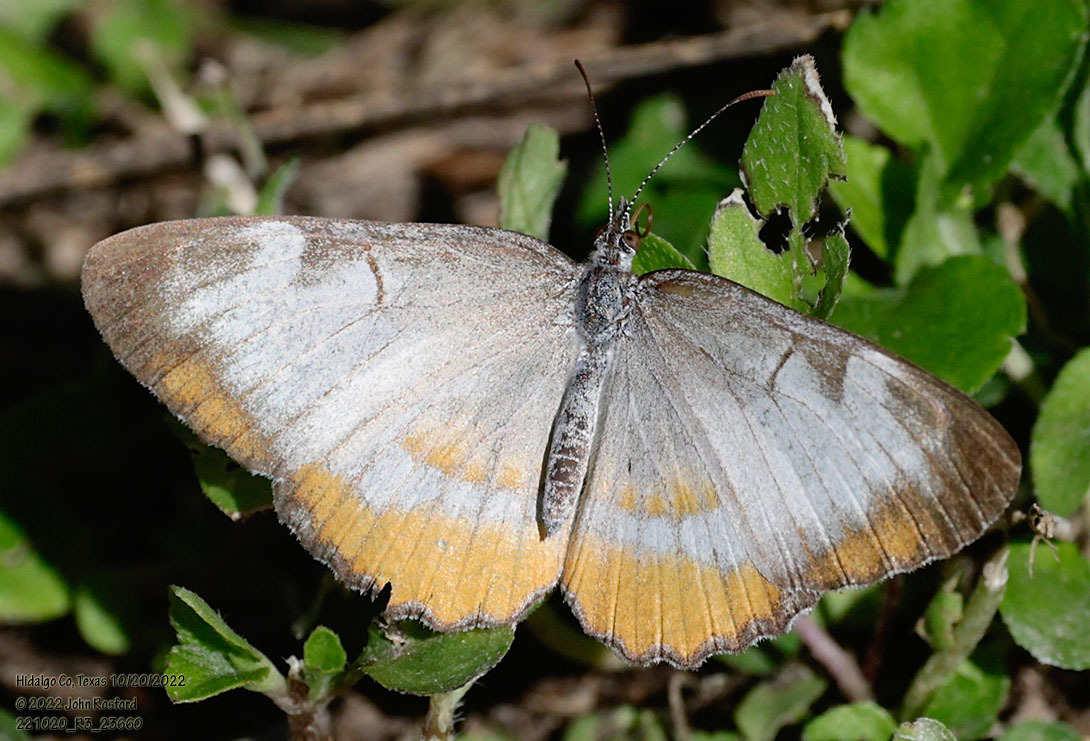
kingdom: Animalia
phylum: Arthropoda
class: Insecta
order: Lepidoptera
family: Nymphalidae
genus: Mestra
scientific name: Mestra amymone
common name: Common mestra
